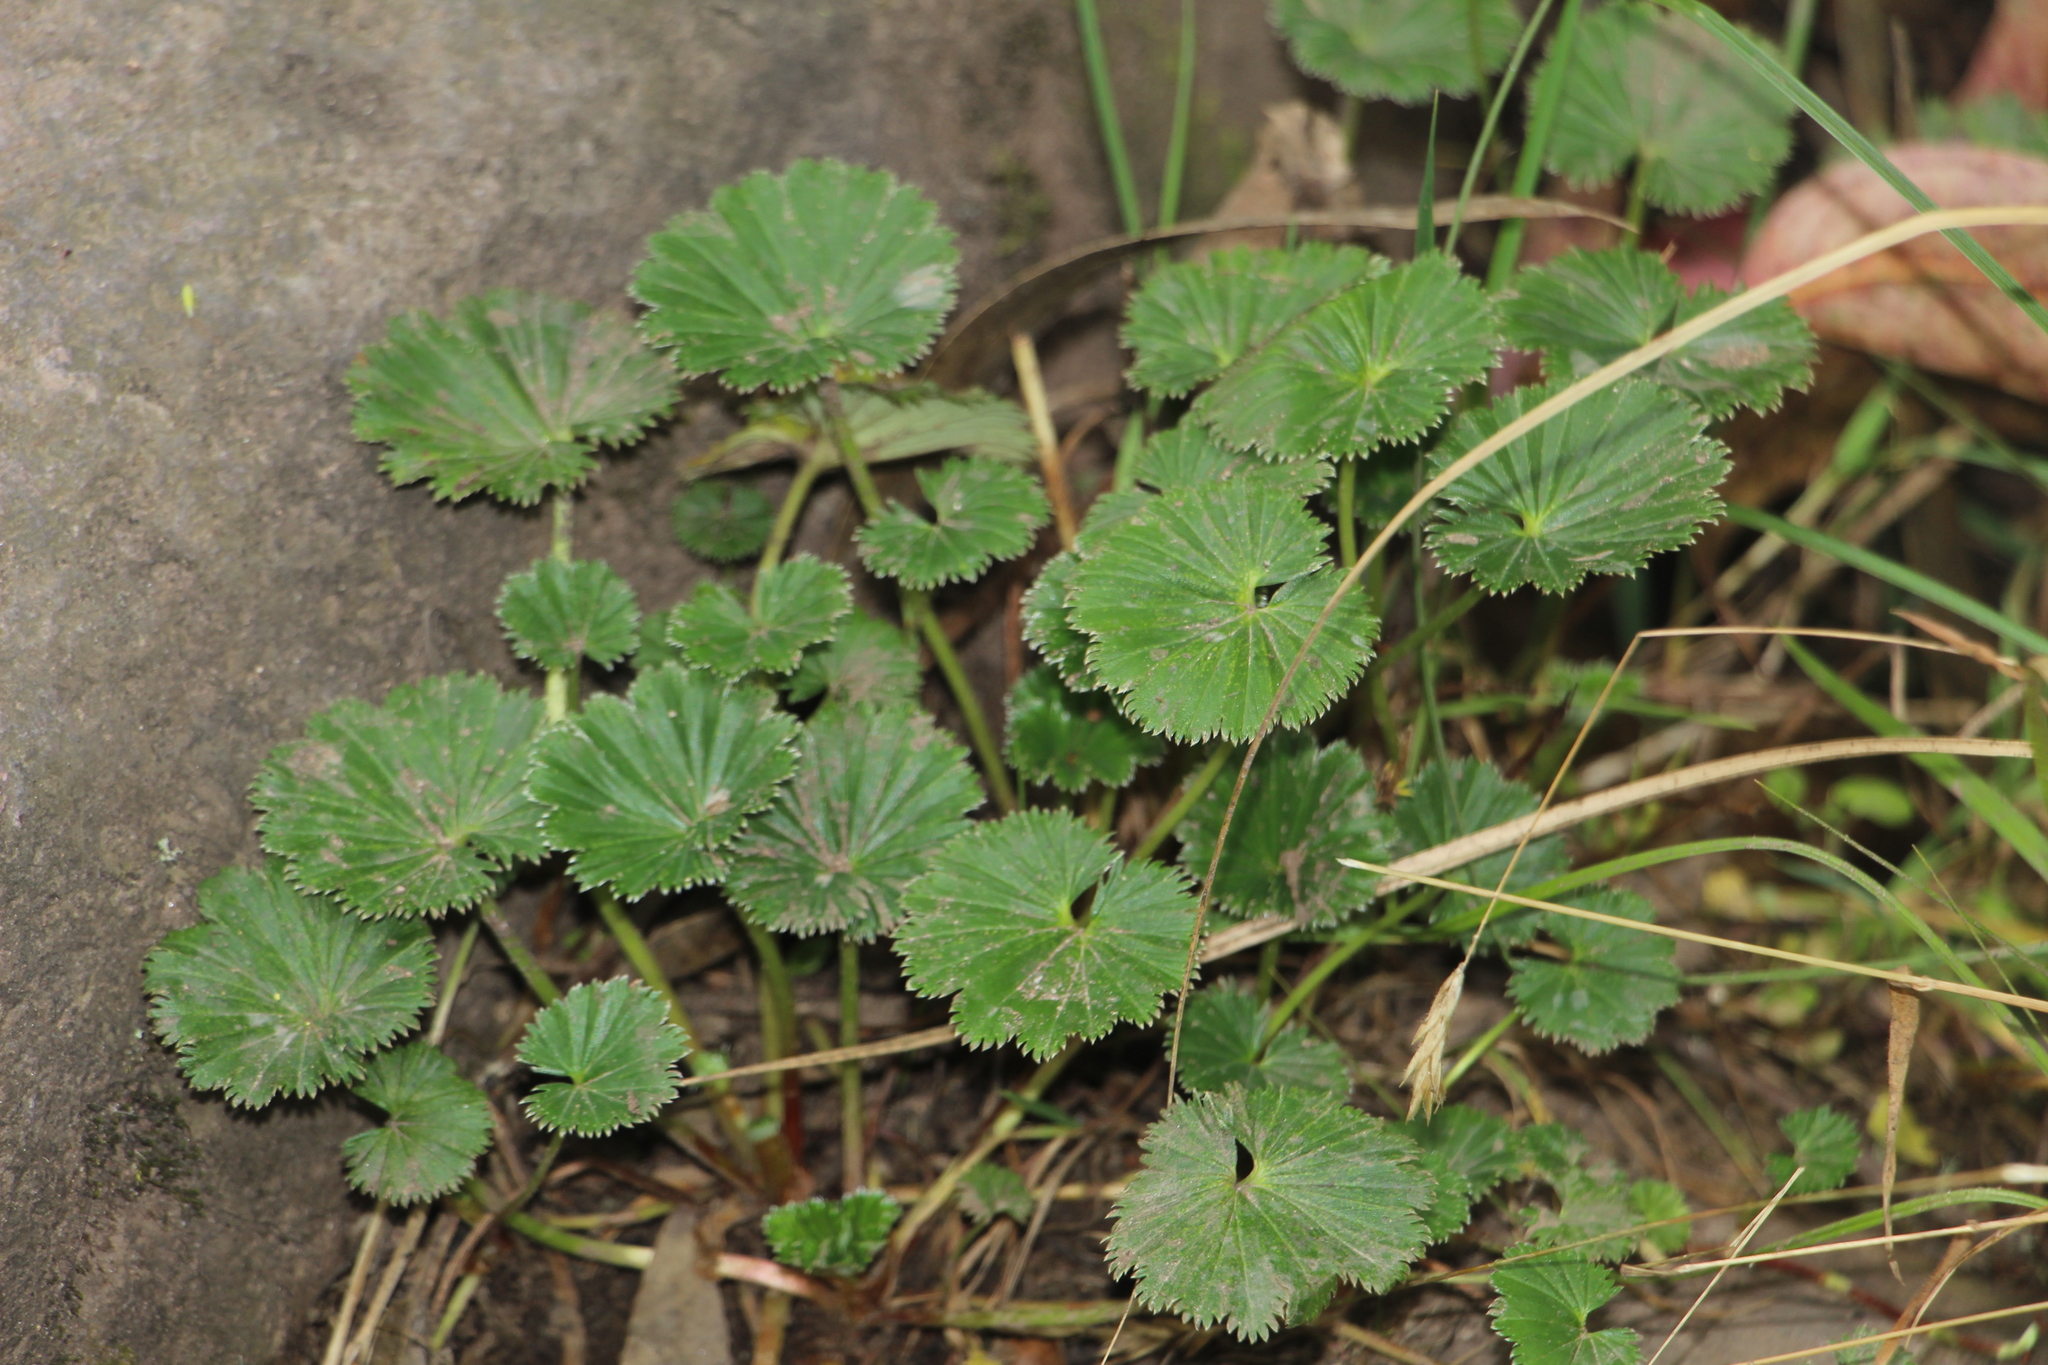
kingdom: Plantae
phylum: Tracheophyta
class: Magnoliopsida
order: Rosales
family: Rosaceae
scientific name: Rosaceae
